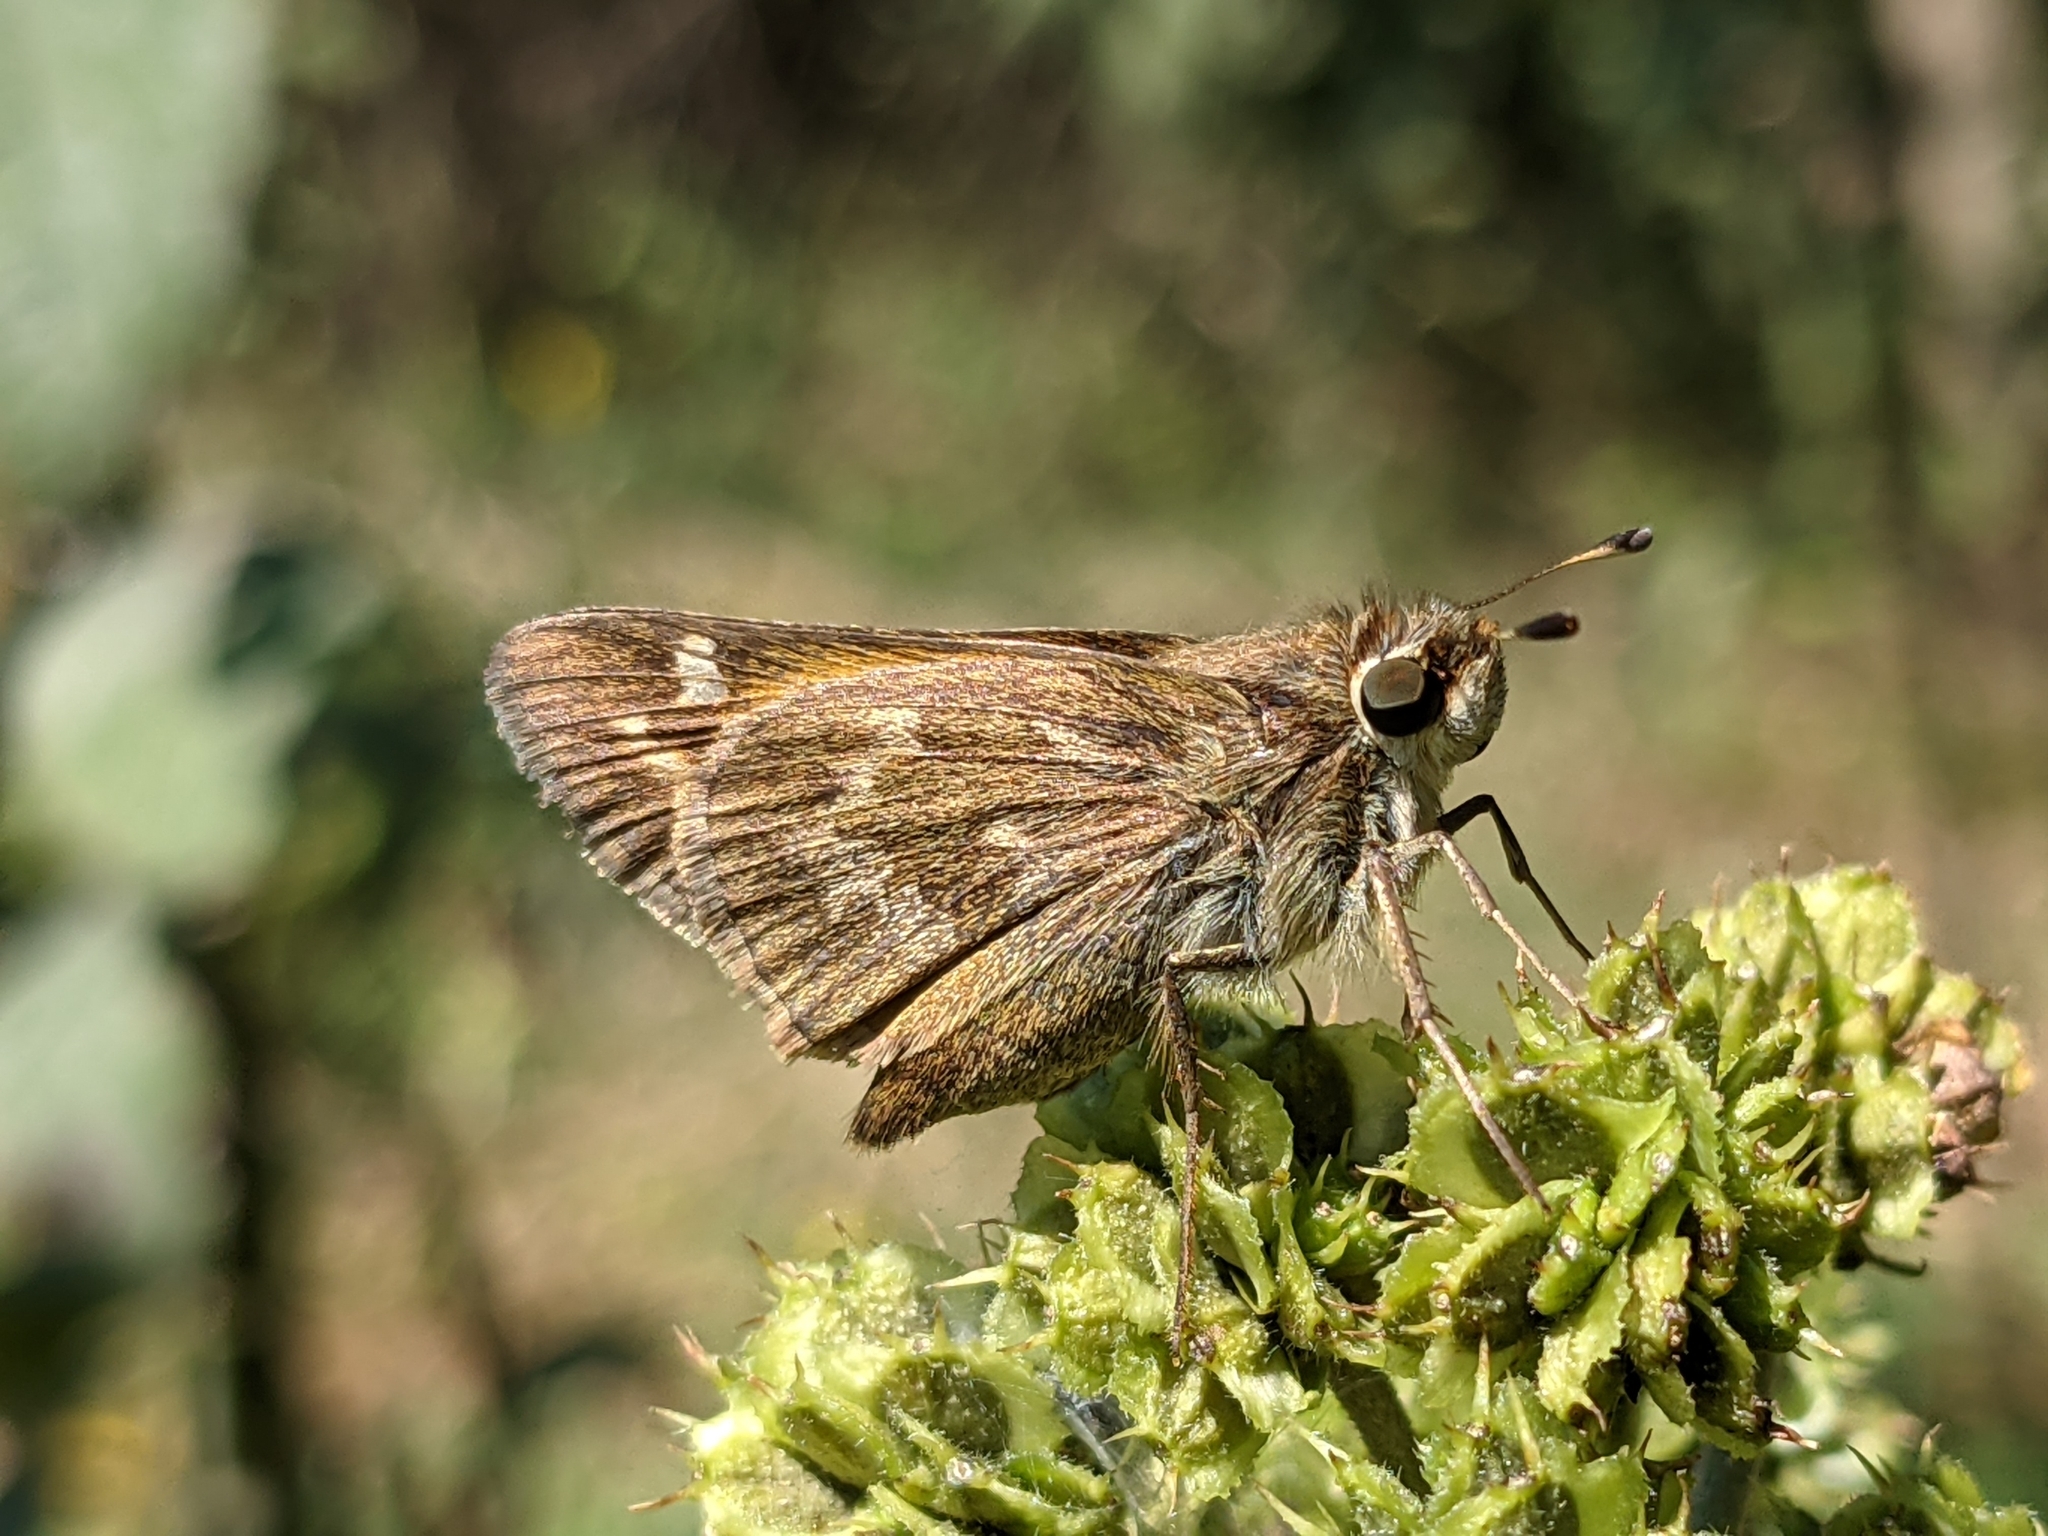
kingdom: Animalia
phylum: Arthropoda
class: Insecta
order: Lepidoptera
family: Hesperiidae
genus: Atalopedes
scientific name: Atalopedes
